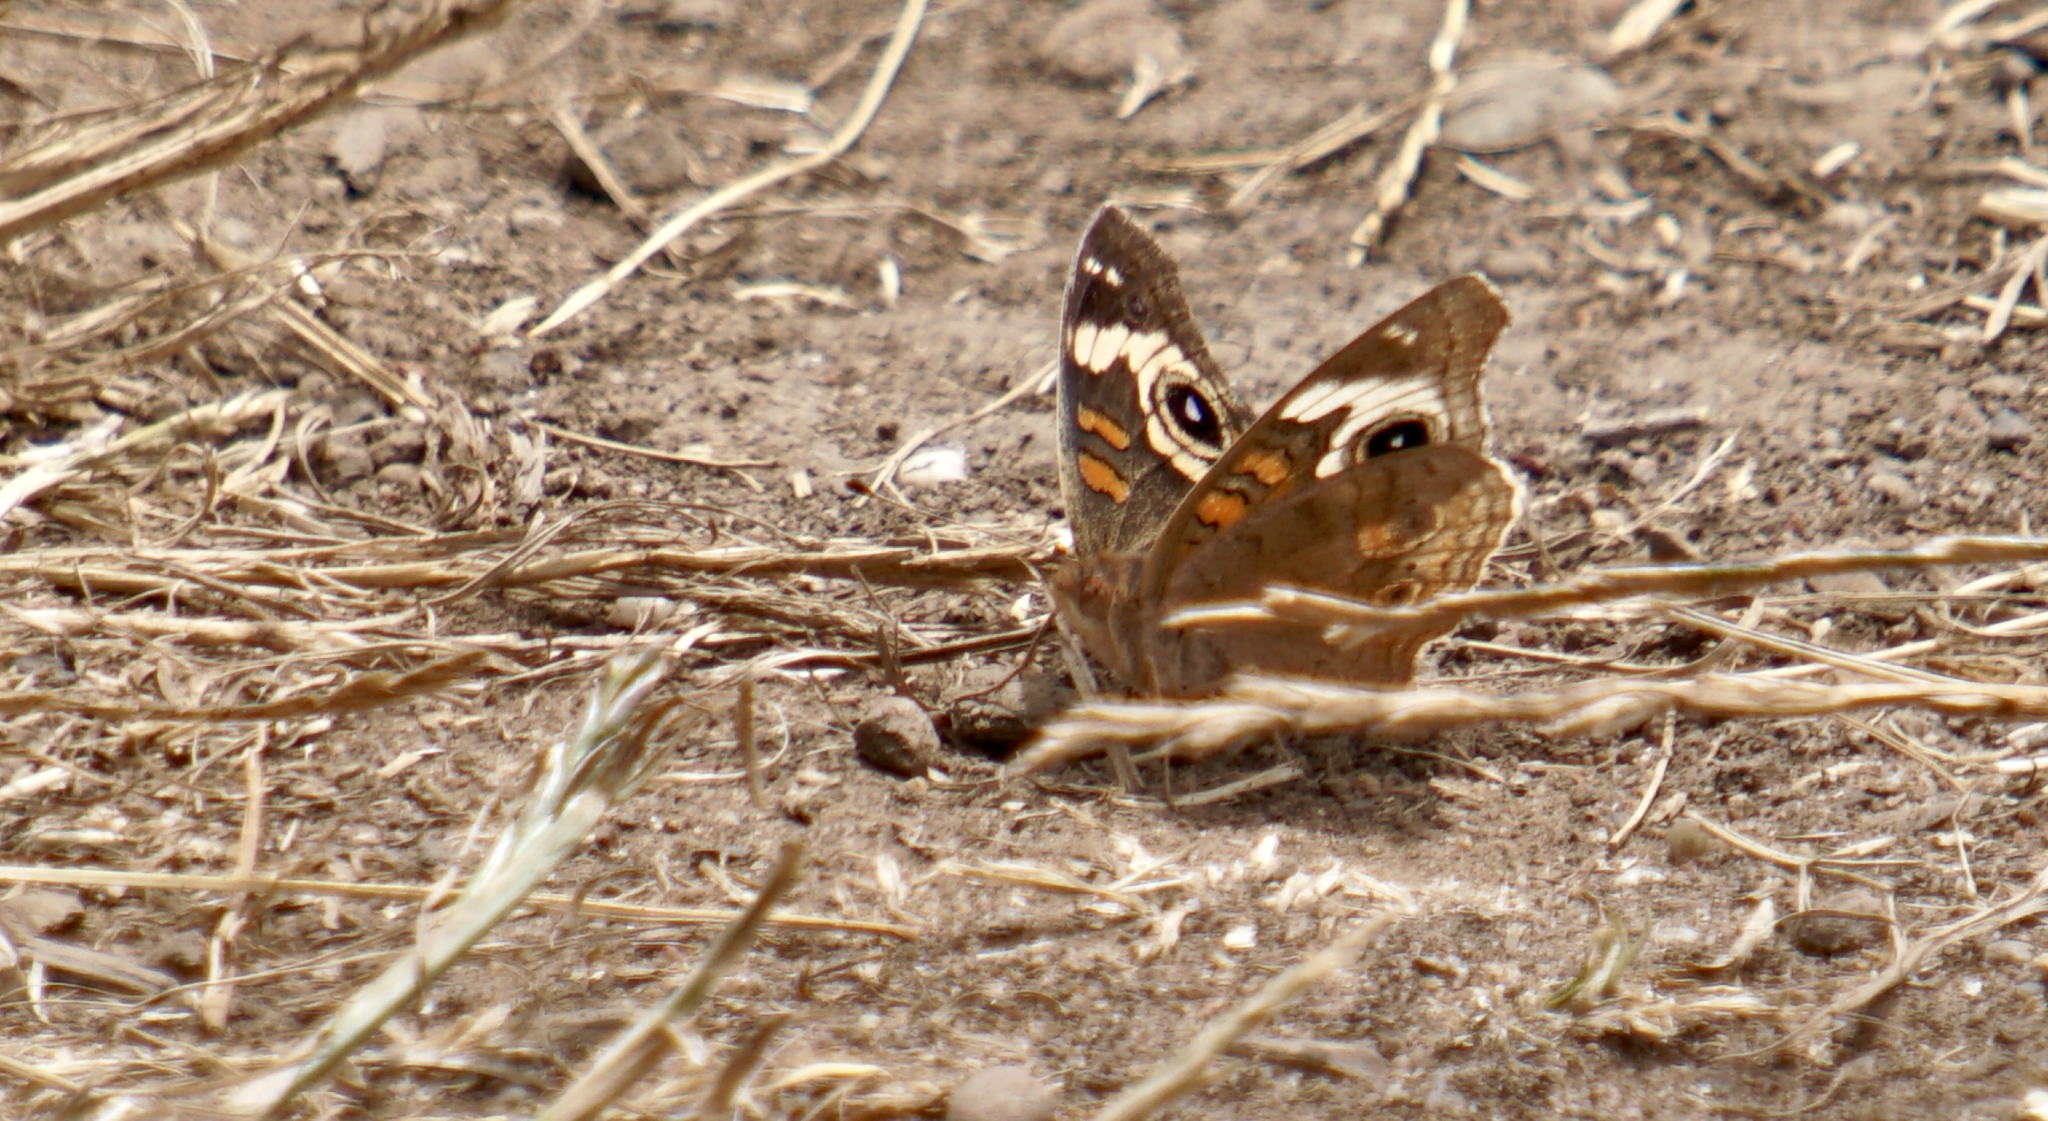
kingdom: Animalia
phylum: Arthropoda
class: Insecta
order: Lepidoptera
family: Nymphalidae
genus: Junonia
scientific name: Junonia grisea
